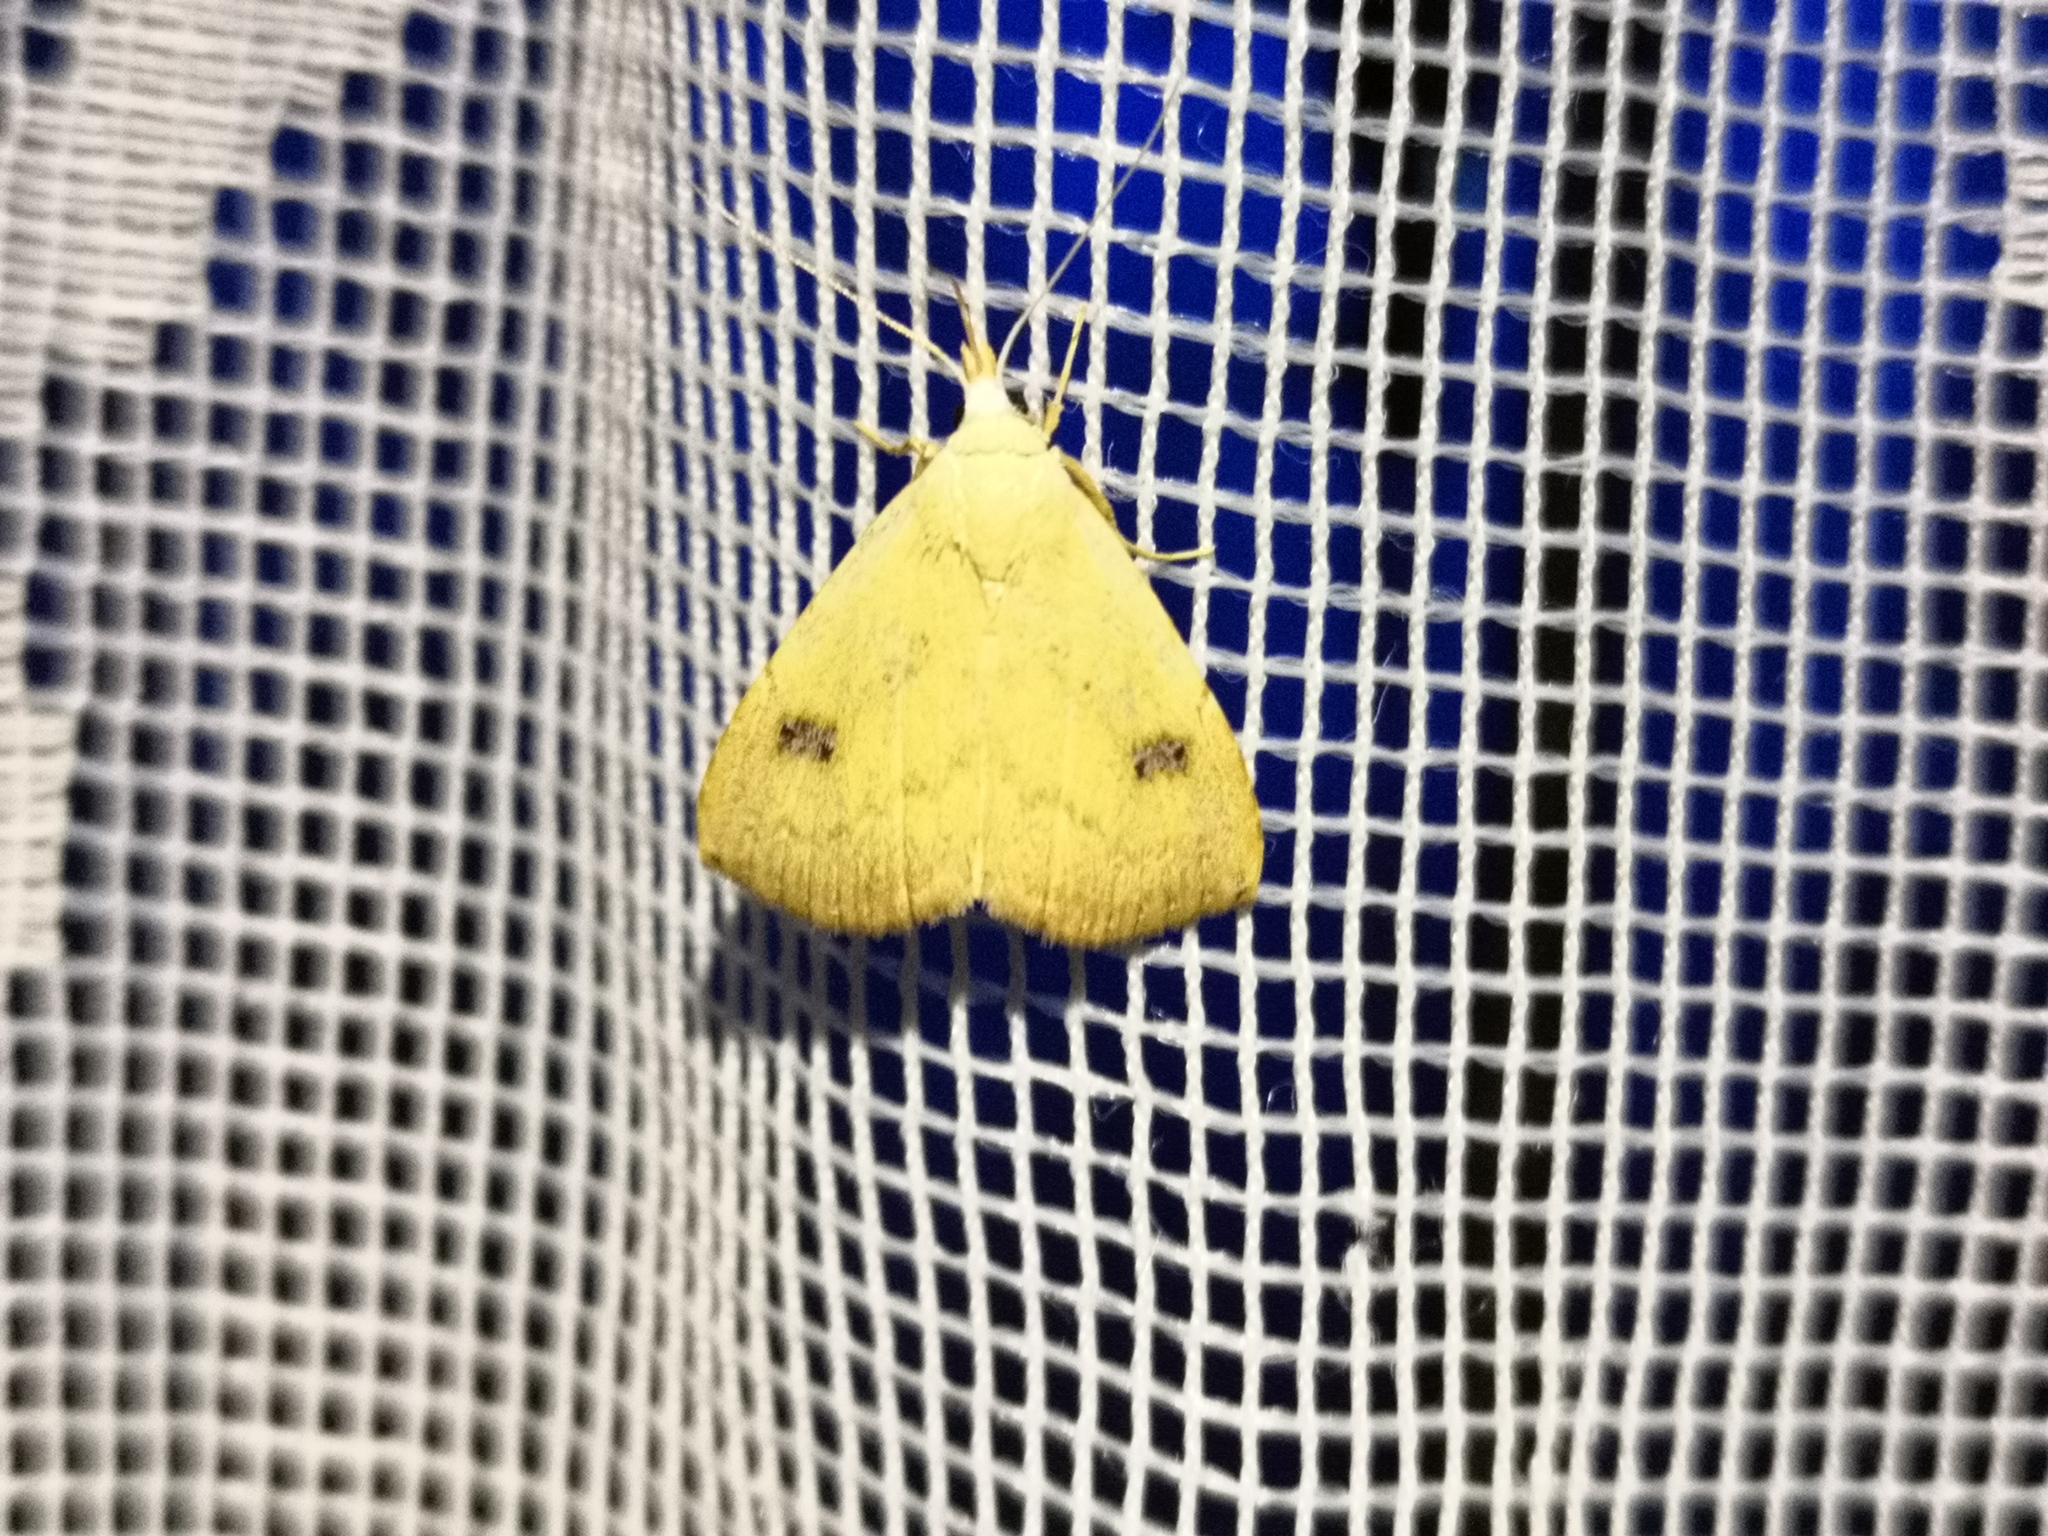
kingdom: Animalia
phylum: Arthropoda
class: Insecta
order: Lepidoptera
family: Erebidae
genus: Rivula
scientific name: Rivula sericealis
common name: Straw dot
